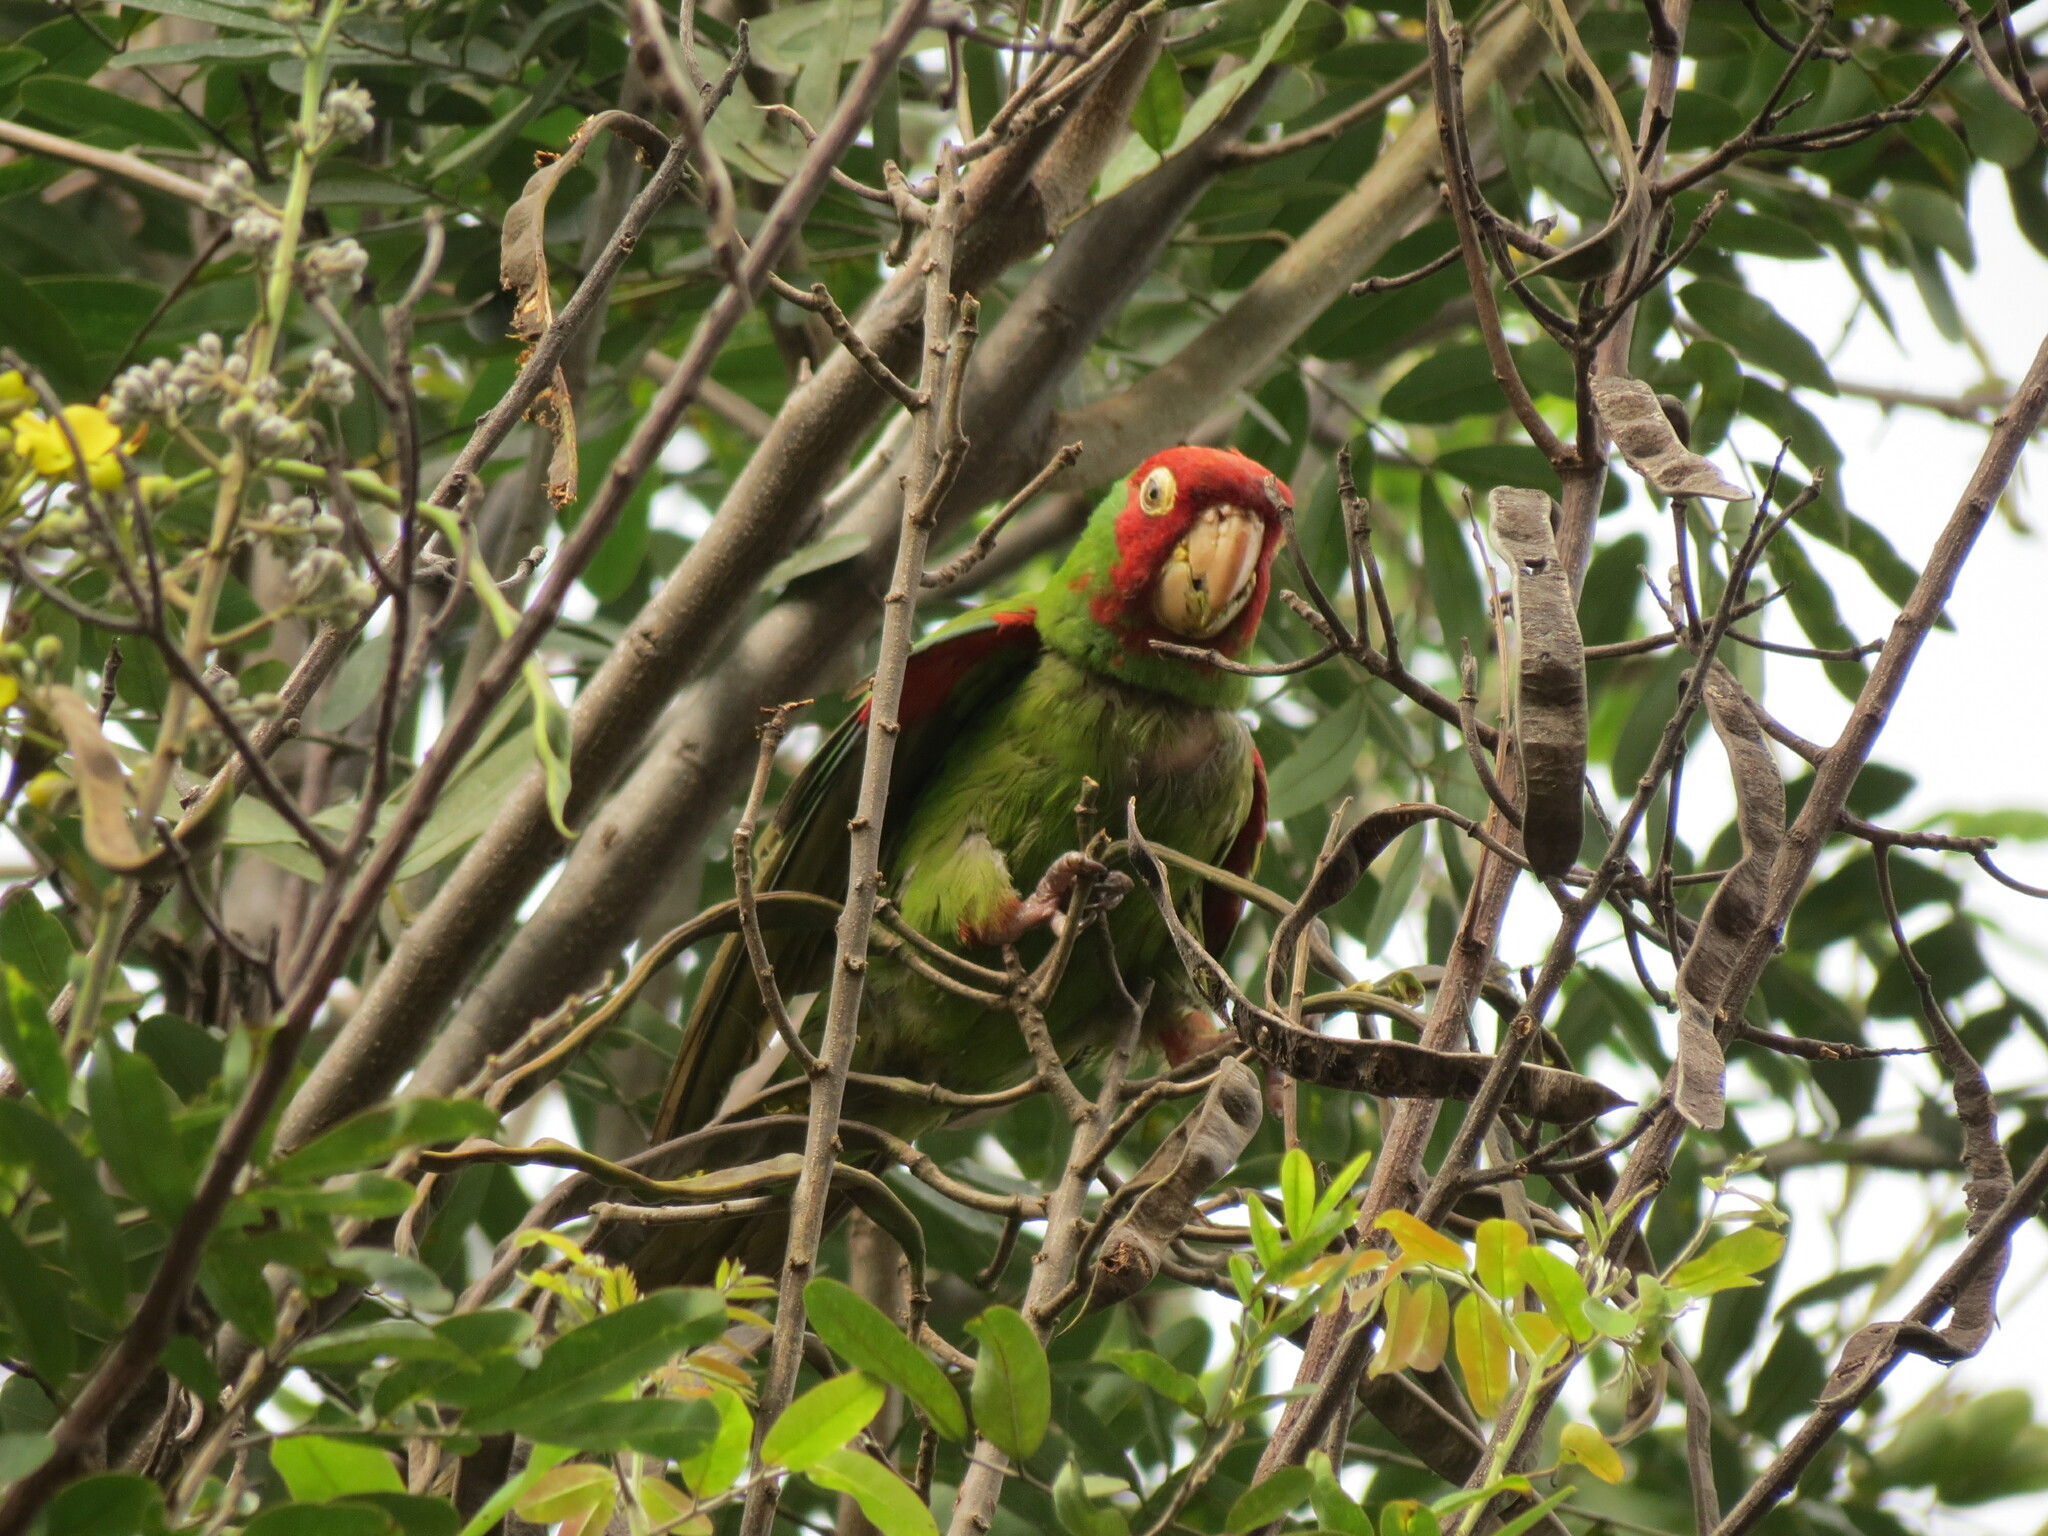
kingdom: Animalia
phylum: Chordata
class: Aves
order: Psittaciformes
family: Psittacidae
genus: Aratinga
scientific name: Aratinga erythrogenys
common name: Red-masked parakeet
